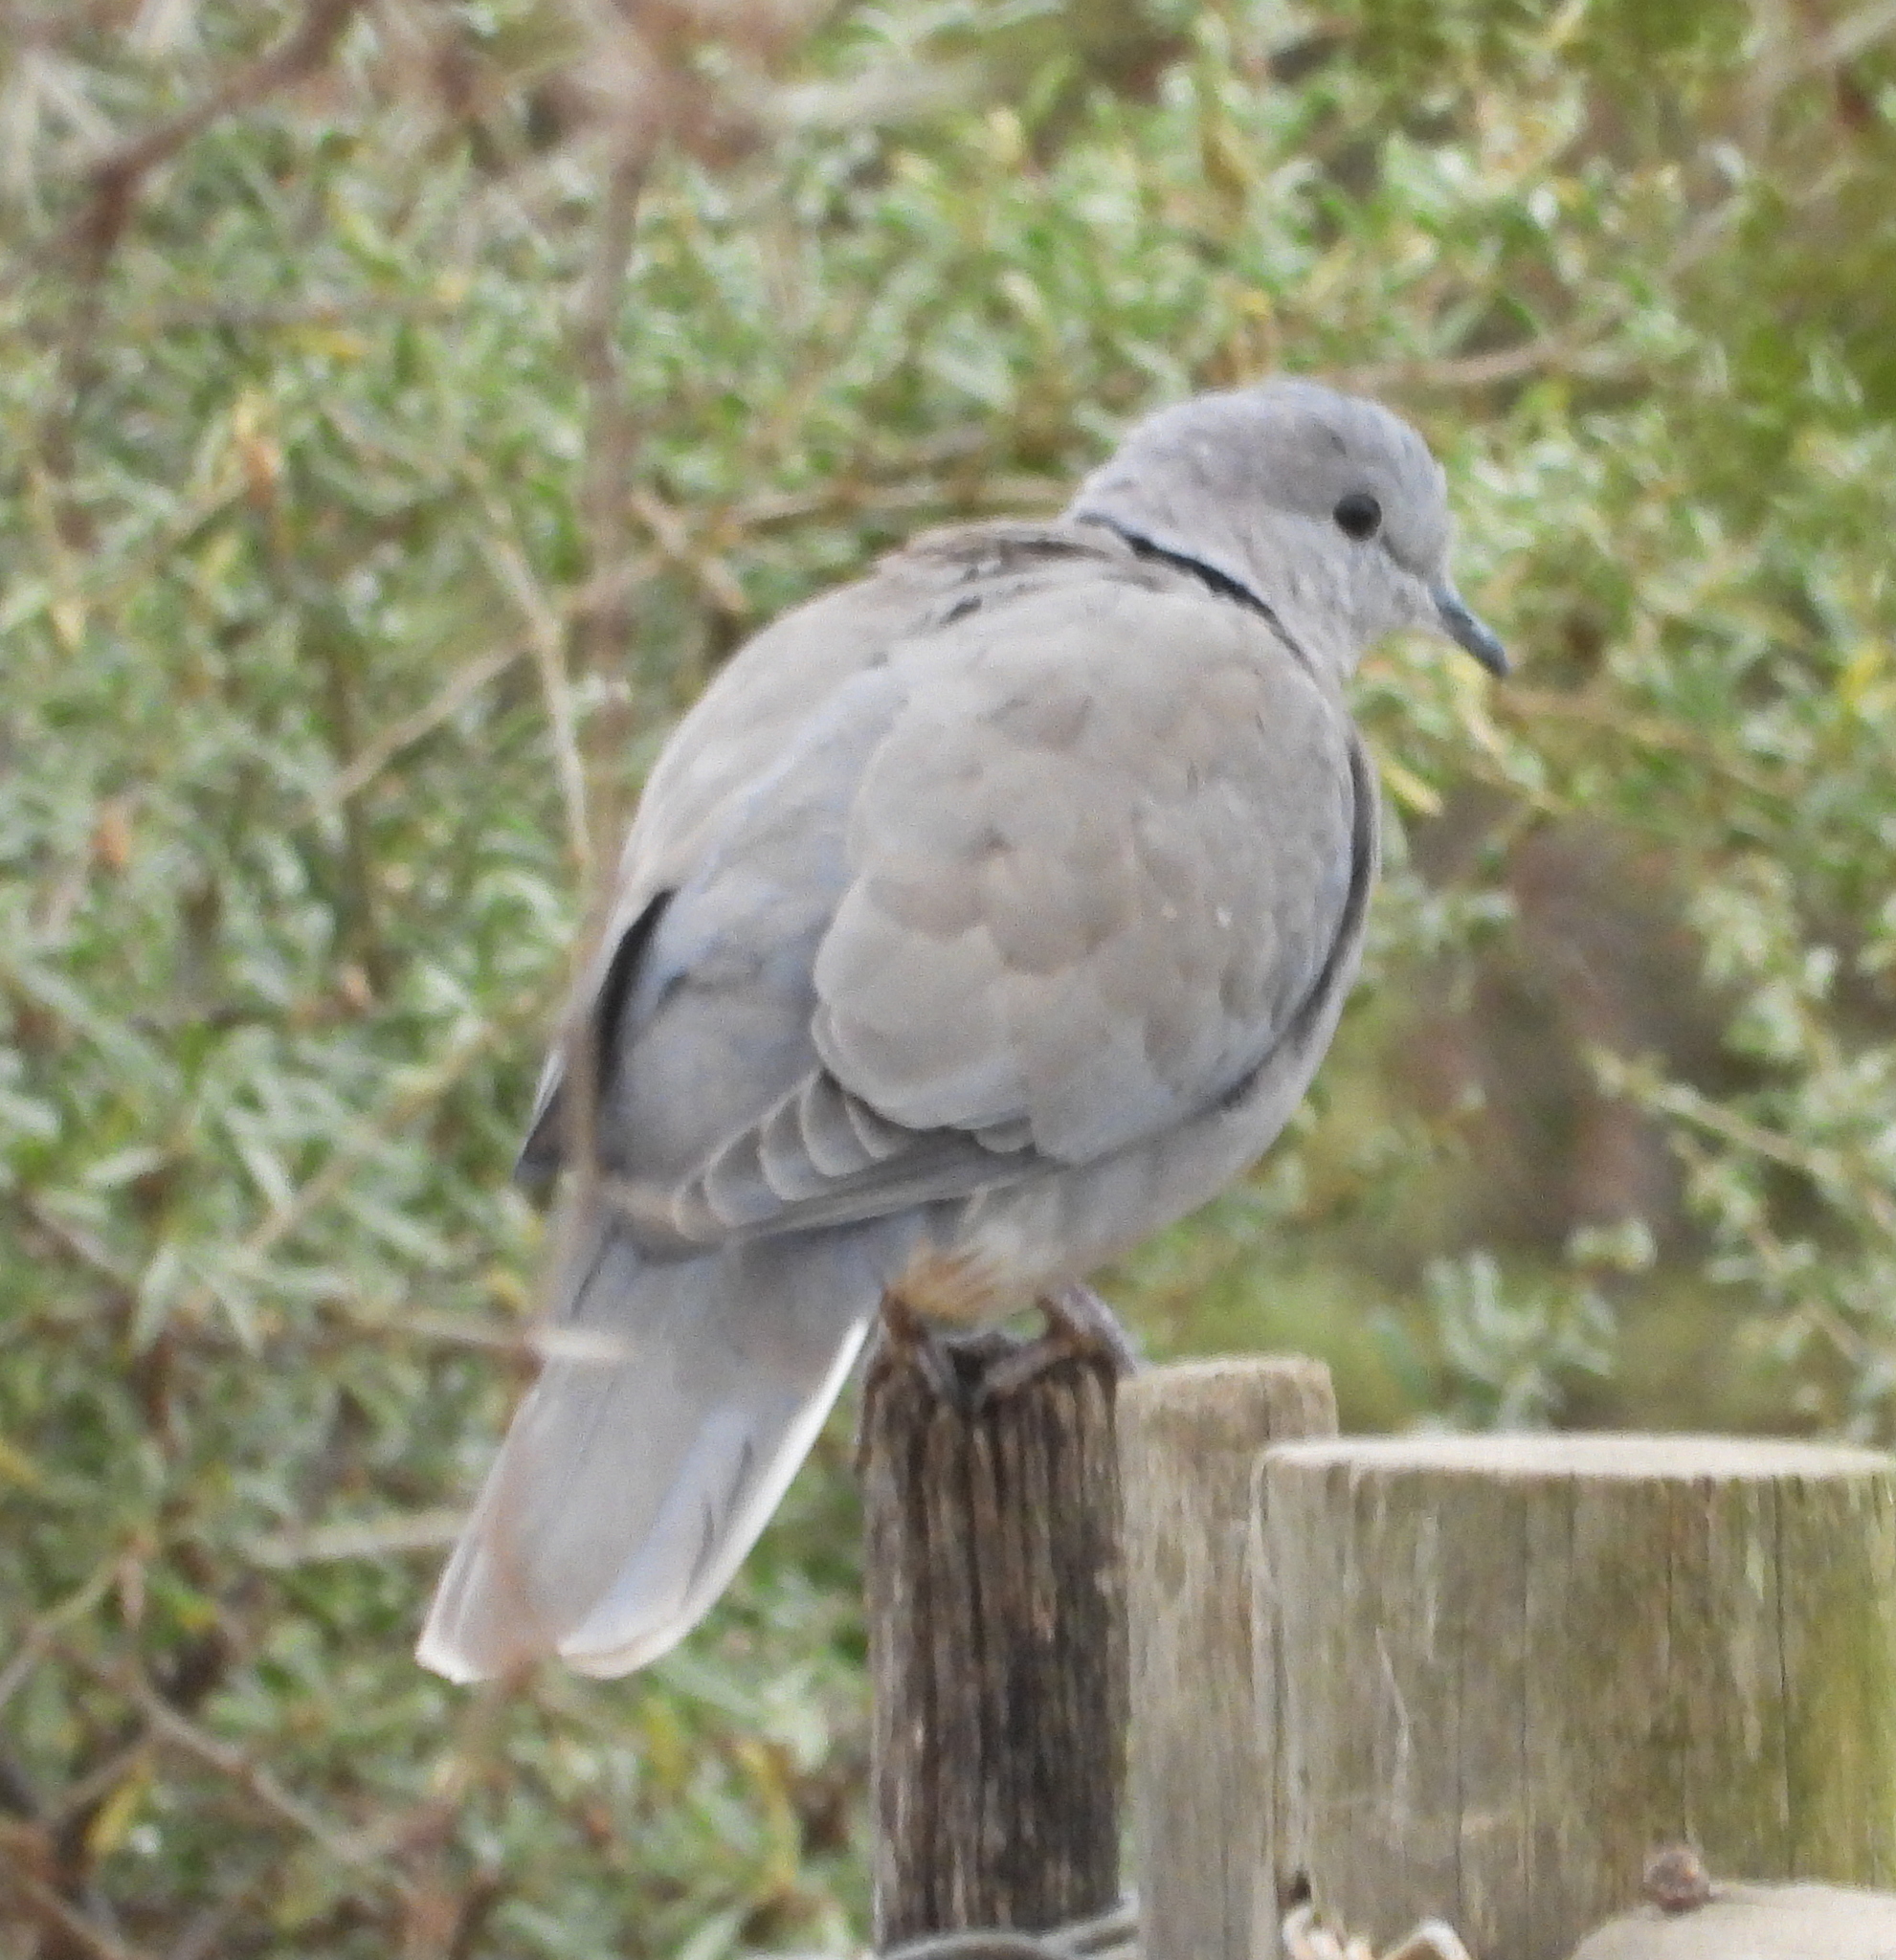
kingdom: Animalia
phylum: Chordata
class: Aves
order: Columbiformes
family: Columbidae
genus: Streptopelia
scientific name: Streptopelia capicola
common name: Ring-necked dove
